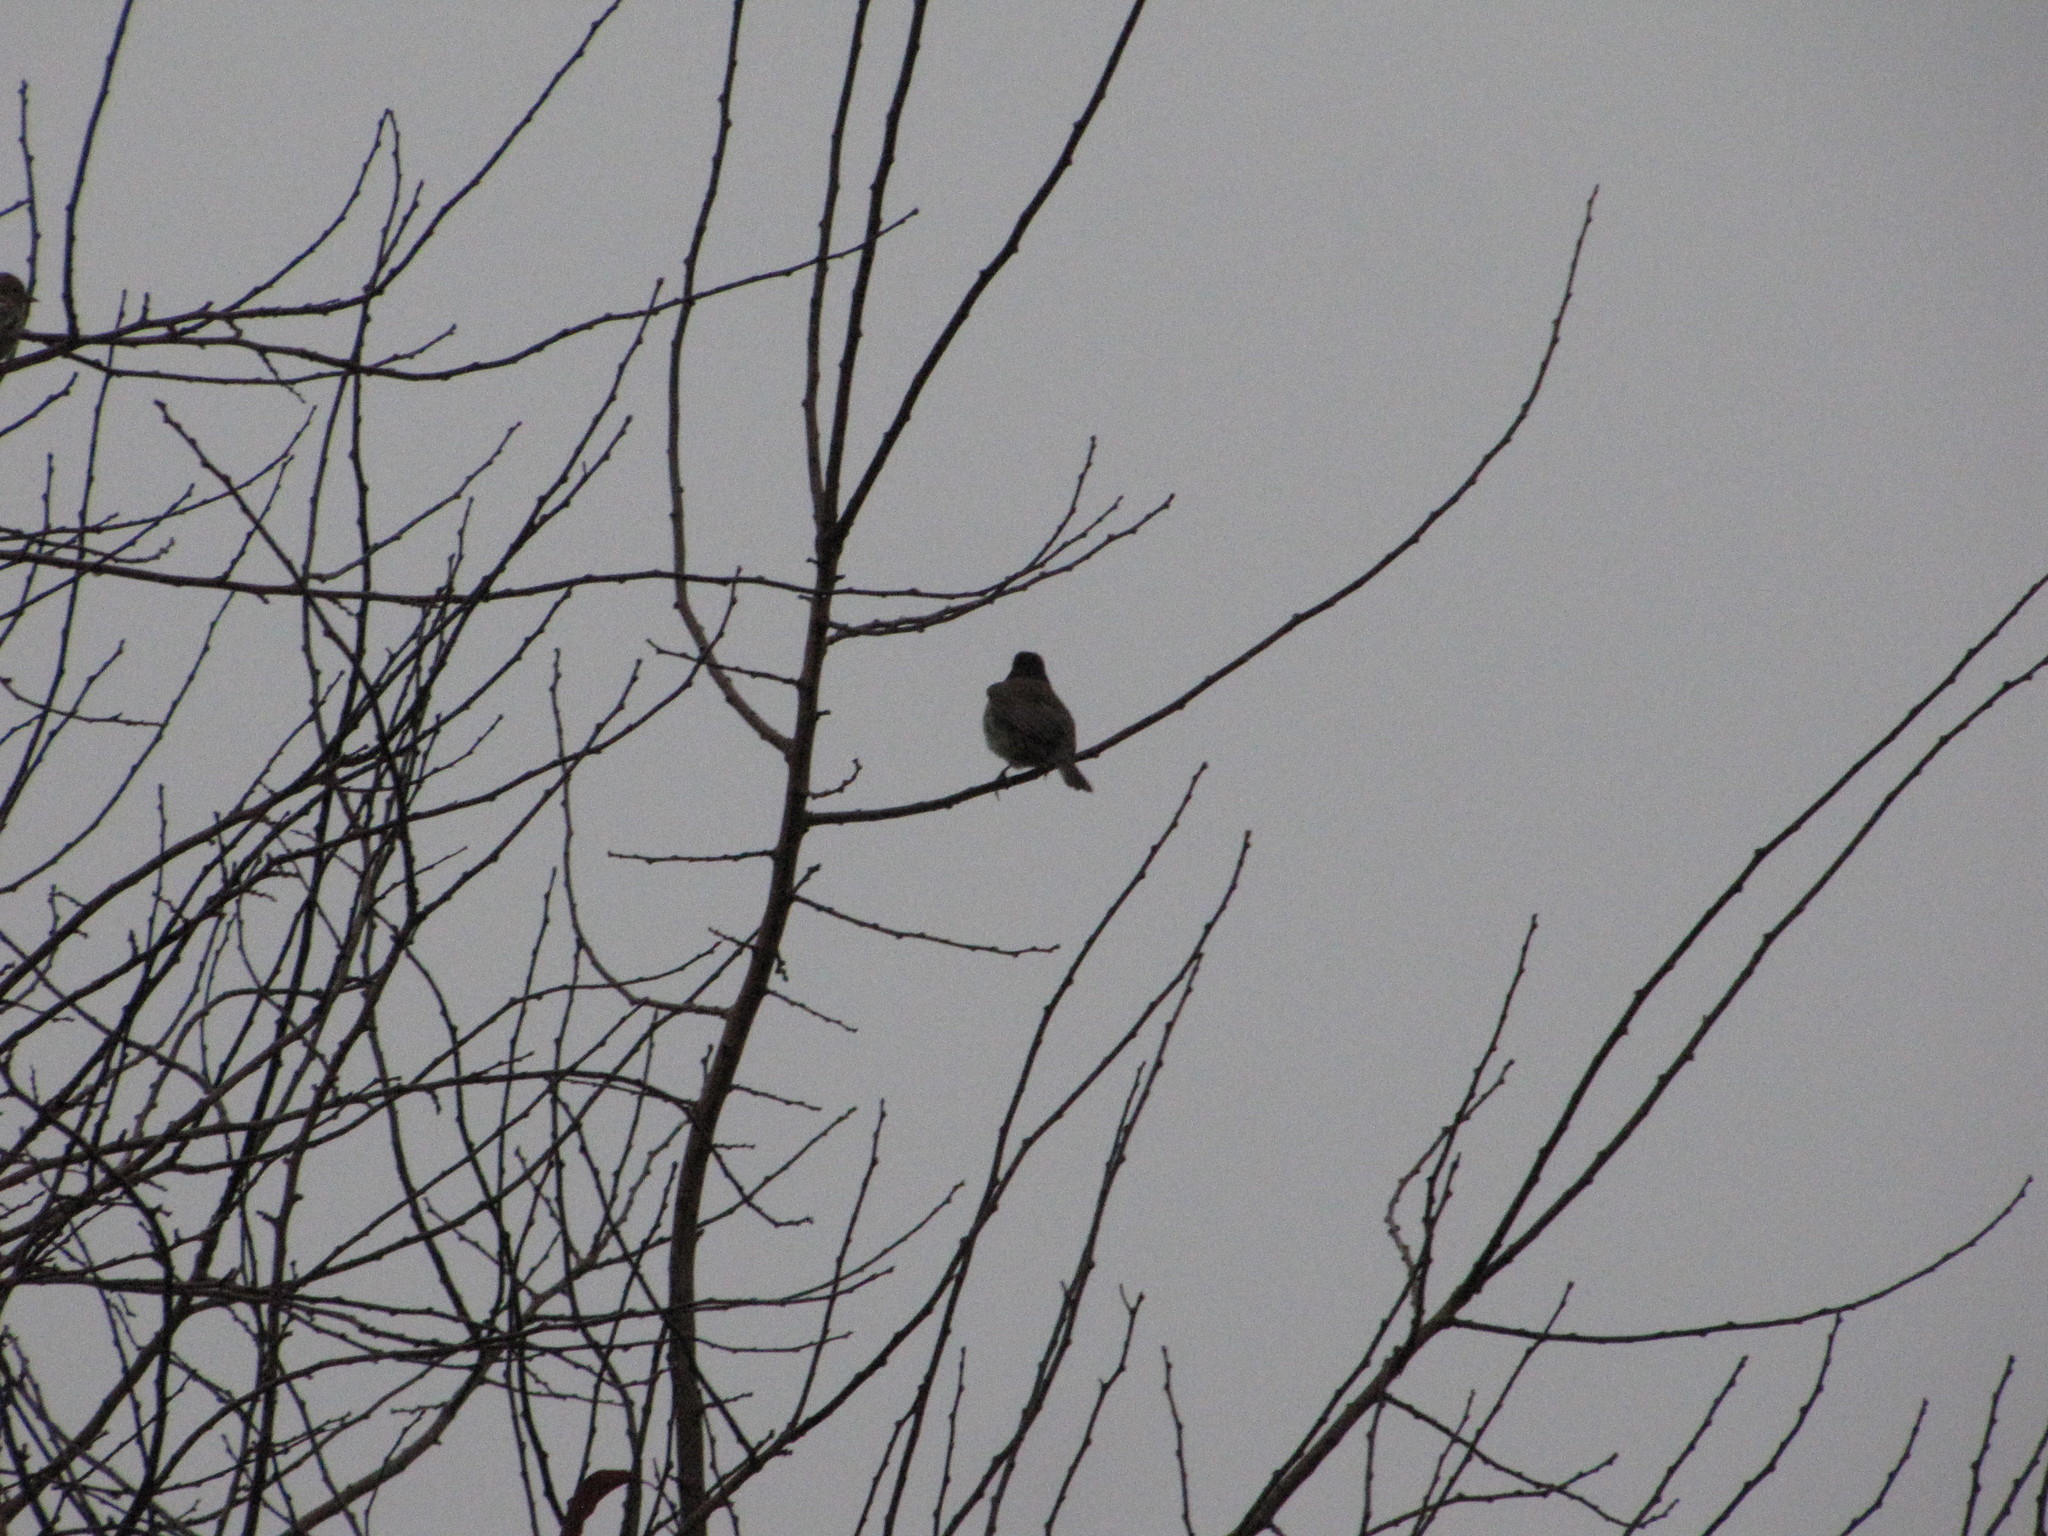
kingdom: Animalia
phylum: Chordata
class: Aves
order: Passeriformes
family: Passerellidae
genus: Junco
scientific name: Junco hyemalis
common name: Dark-eyed junco
